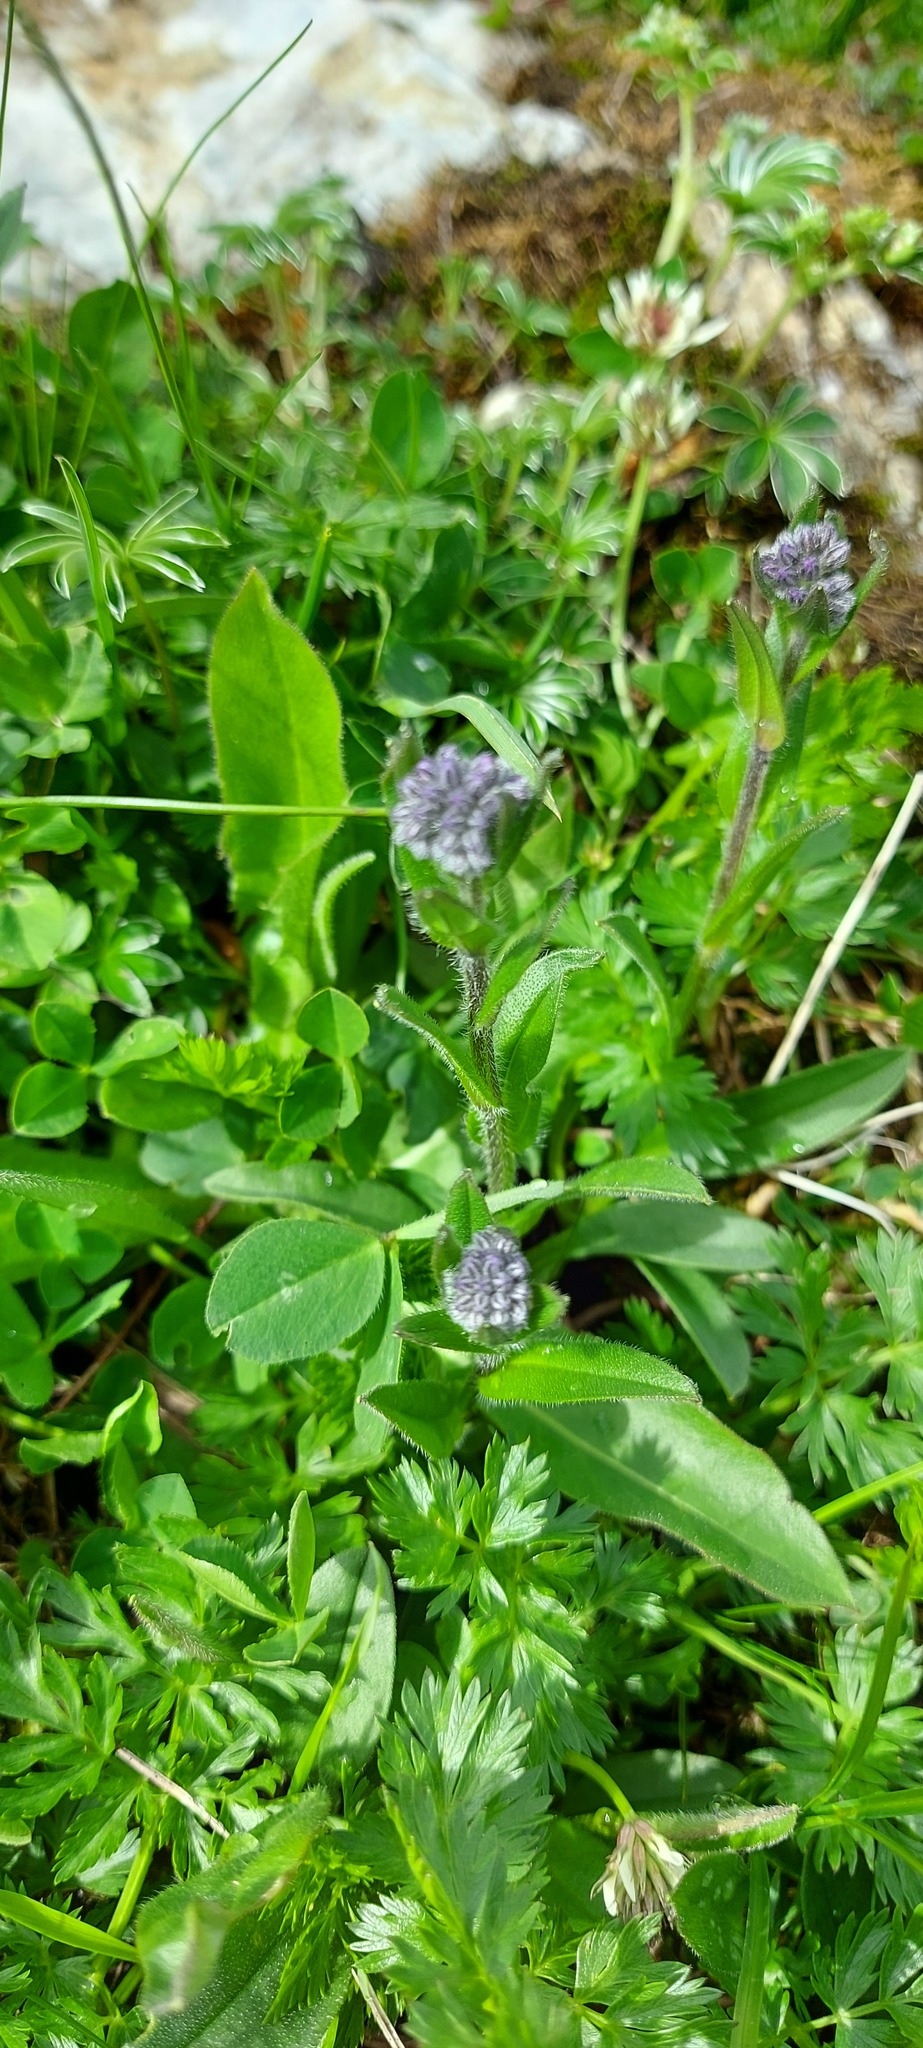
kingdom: Plantae
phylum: Tracheophyta
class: Magnoliopsida
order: Lamiales
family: Plantaginaceae
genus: Veronica
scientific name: Veronica alpina
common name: Alpine speedwell
